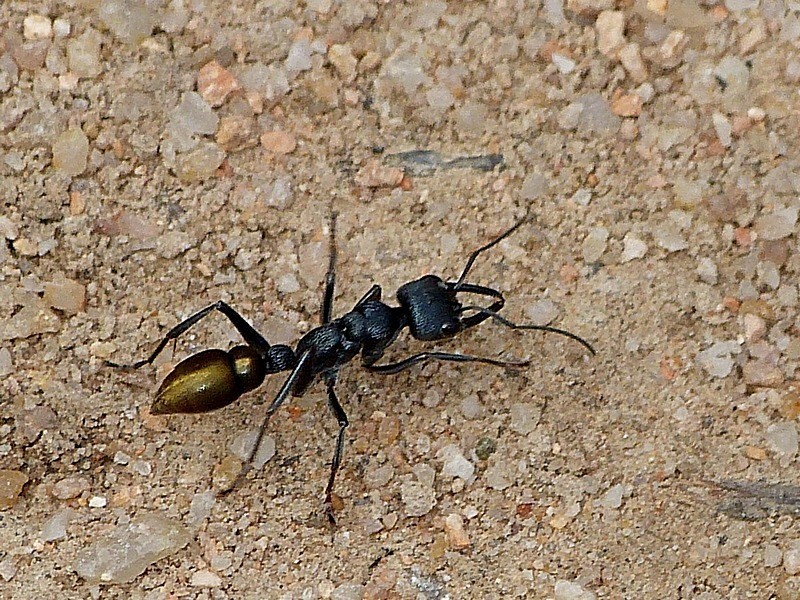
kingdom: Animalia
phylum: Arthropoda
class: Insecta
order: Hymenoptera
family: Formicidae
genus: Myrmecia
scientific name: Myrmecia piliventris
